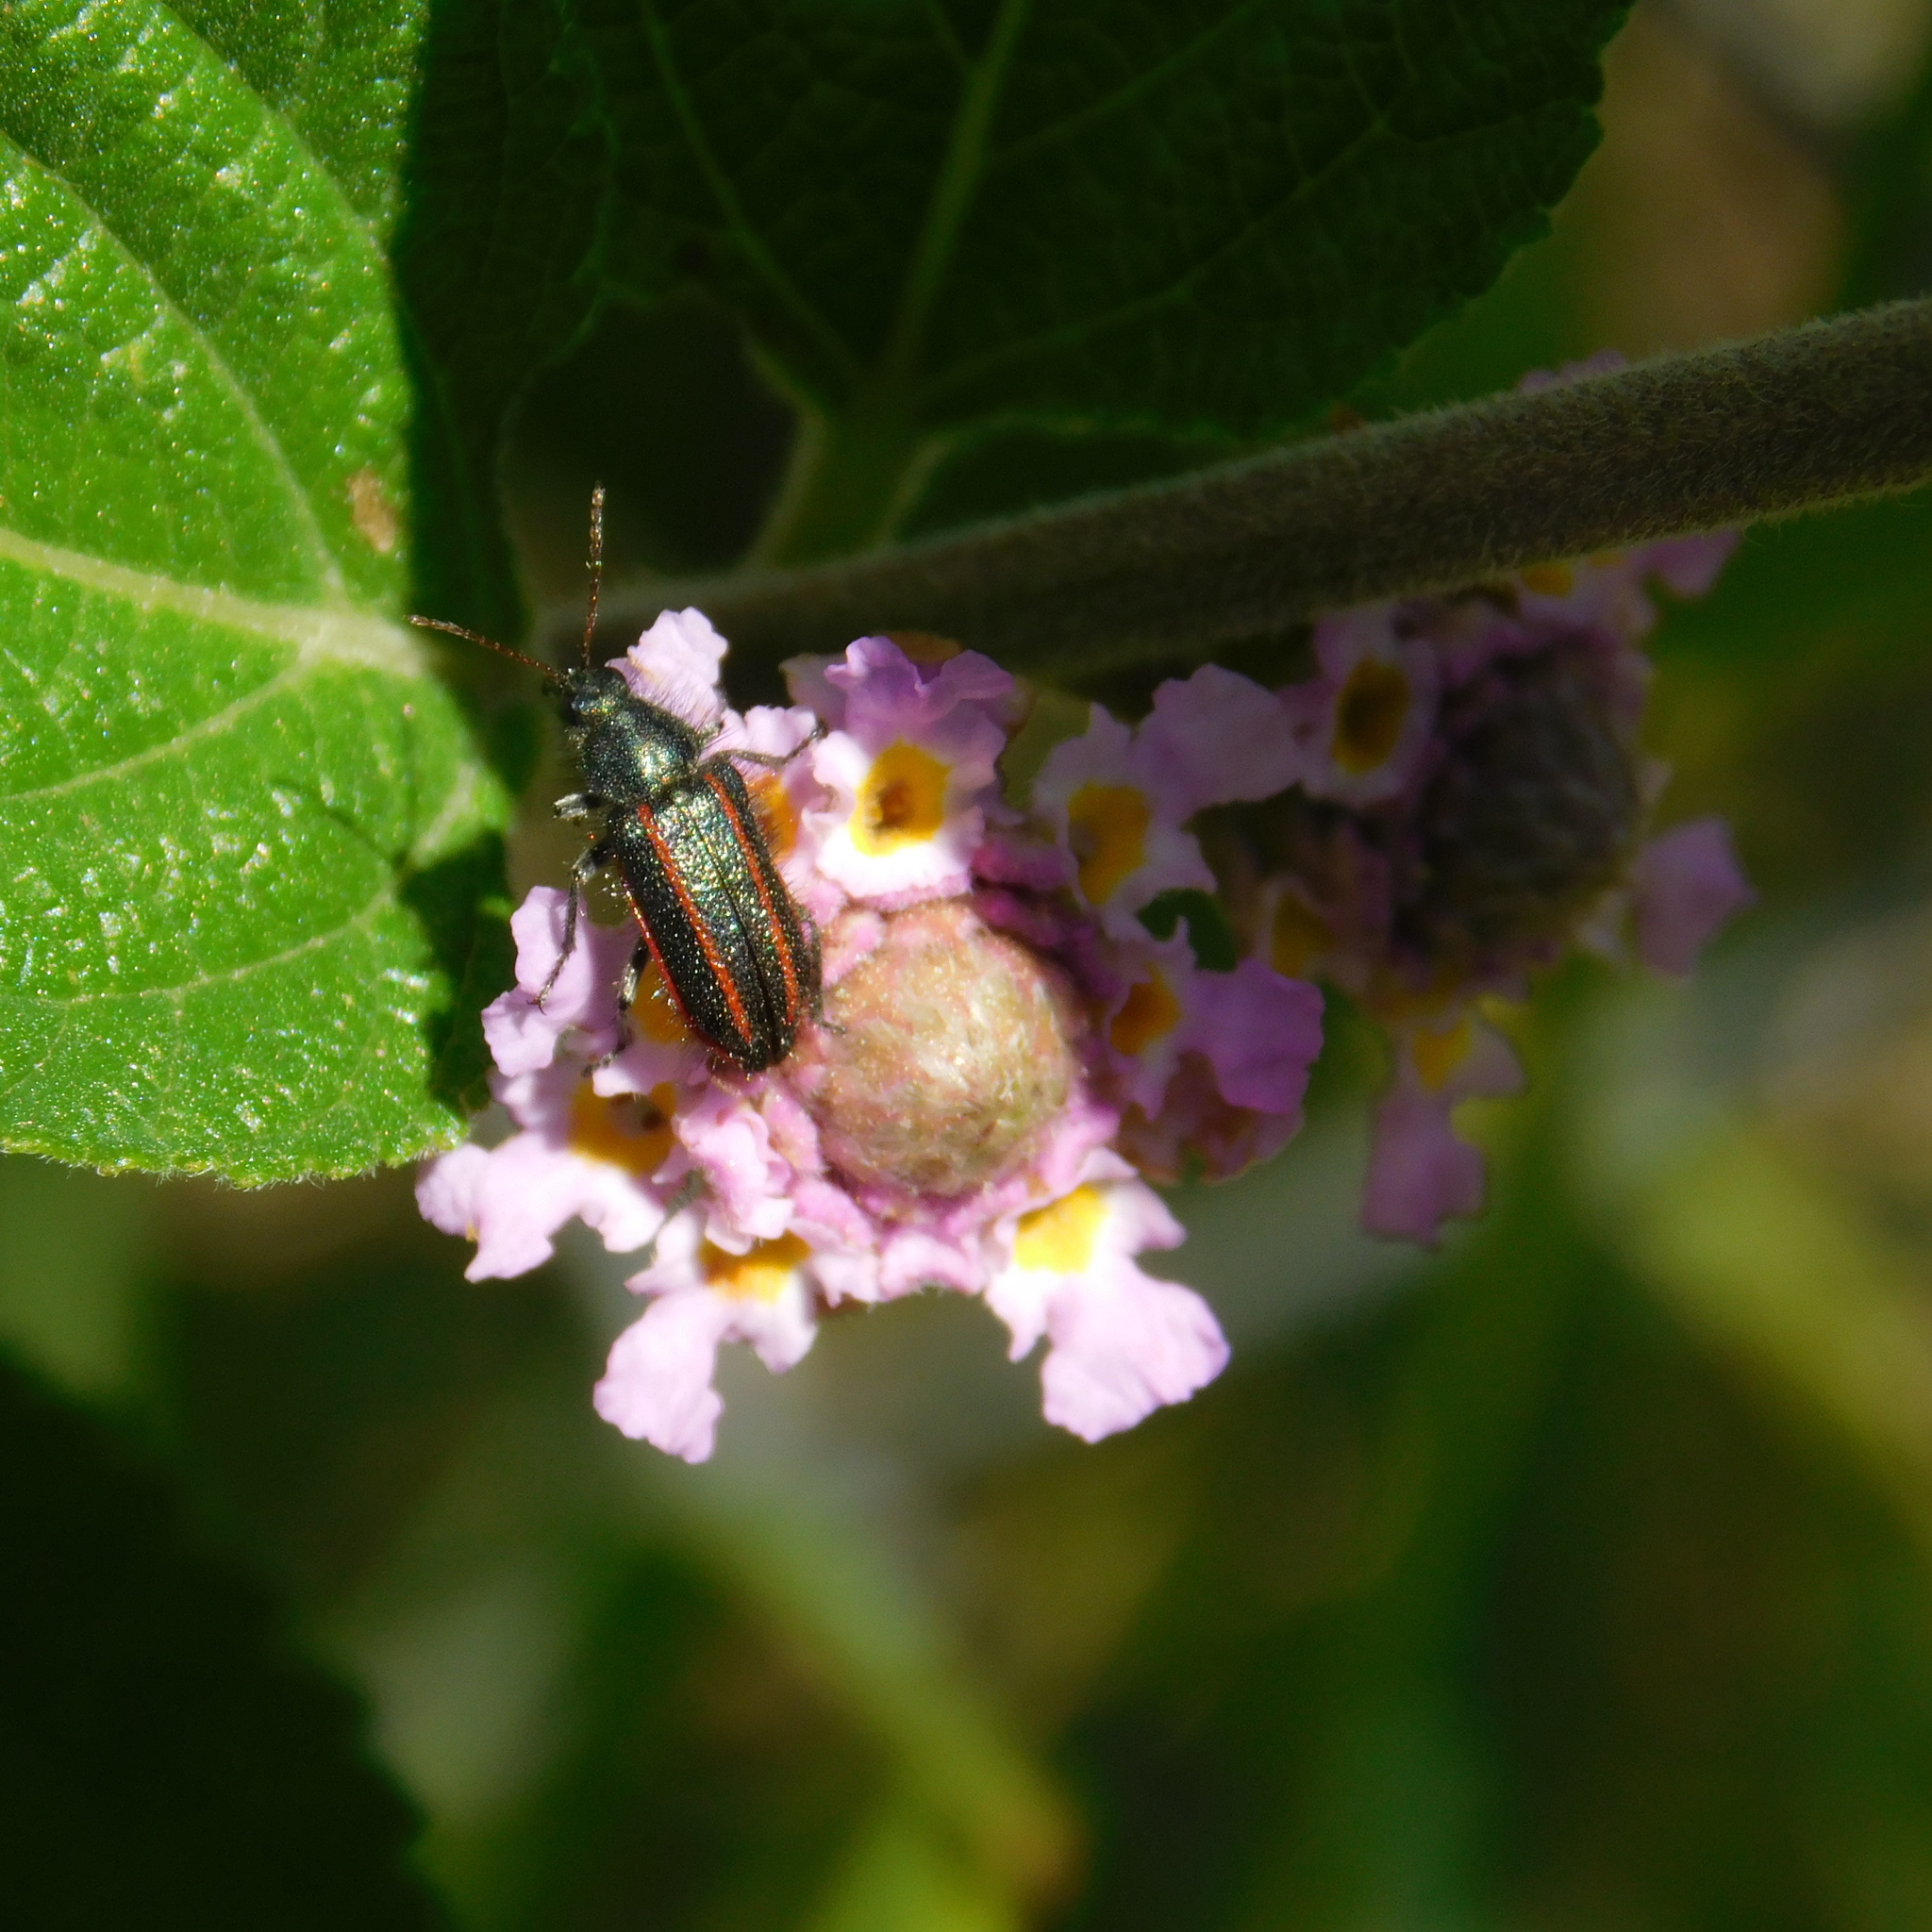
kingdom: Animalia
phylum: Arthropoda
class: Insecta
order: Coleoptera
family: Melyridae
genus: Astylus
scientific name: Astylus
